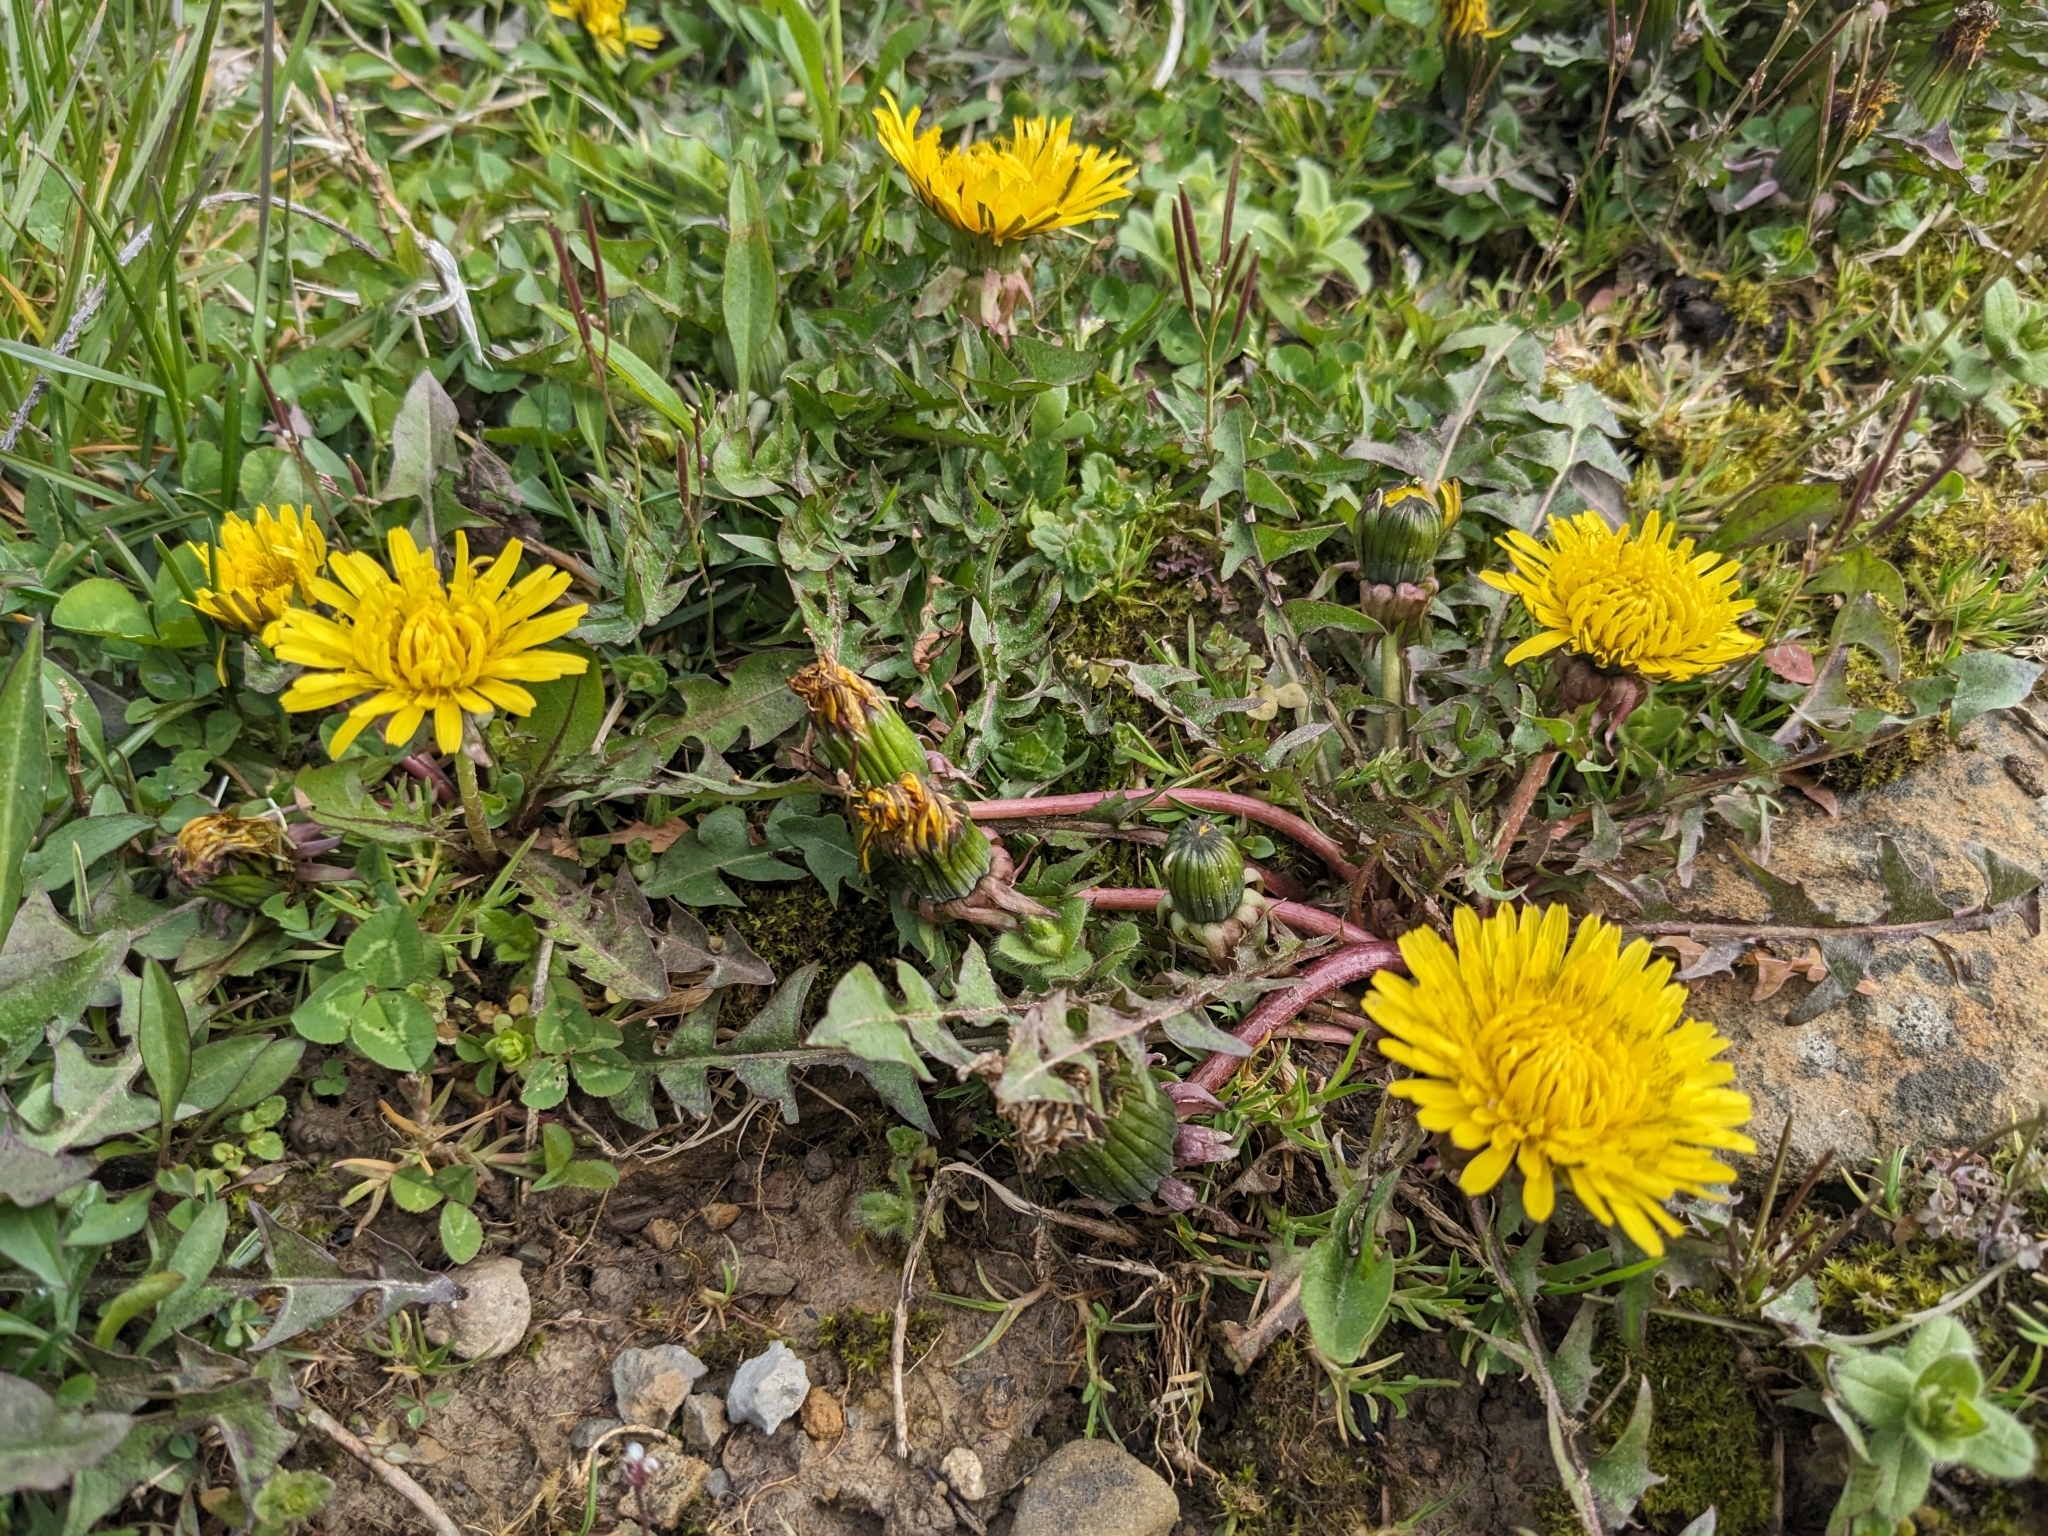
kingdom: Plantae
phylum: Tracheophyta
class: Magnoliopsida
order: Asterales
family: Asteraceae
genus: Taraxacum
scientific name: Taraxacum
